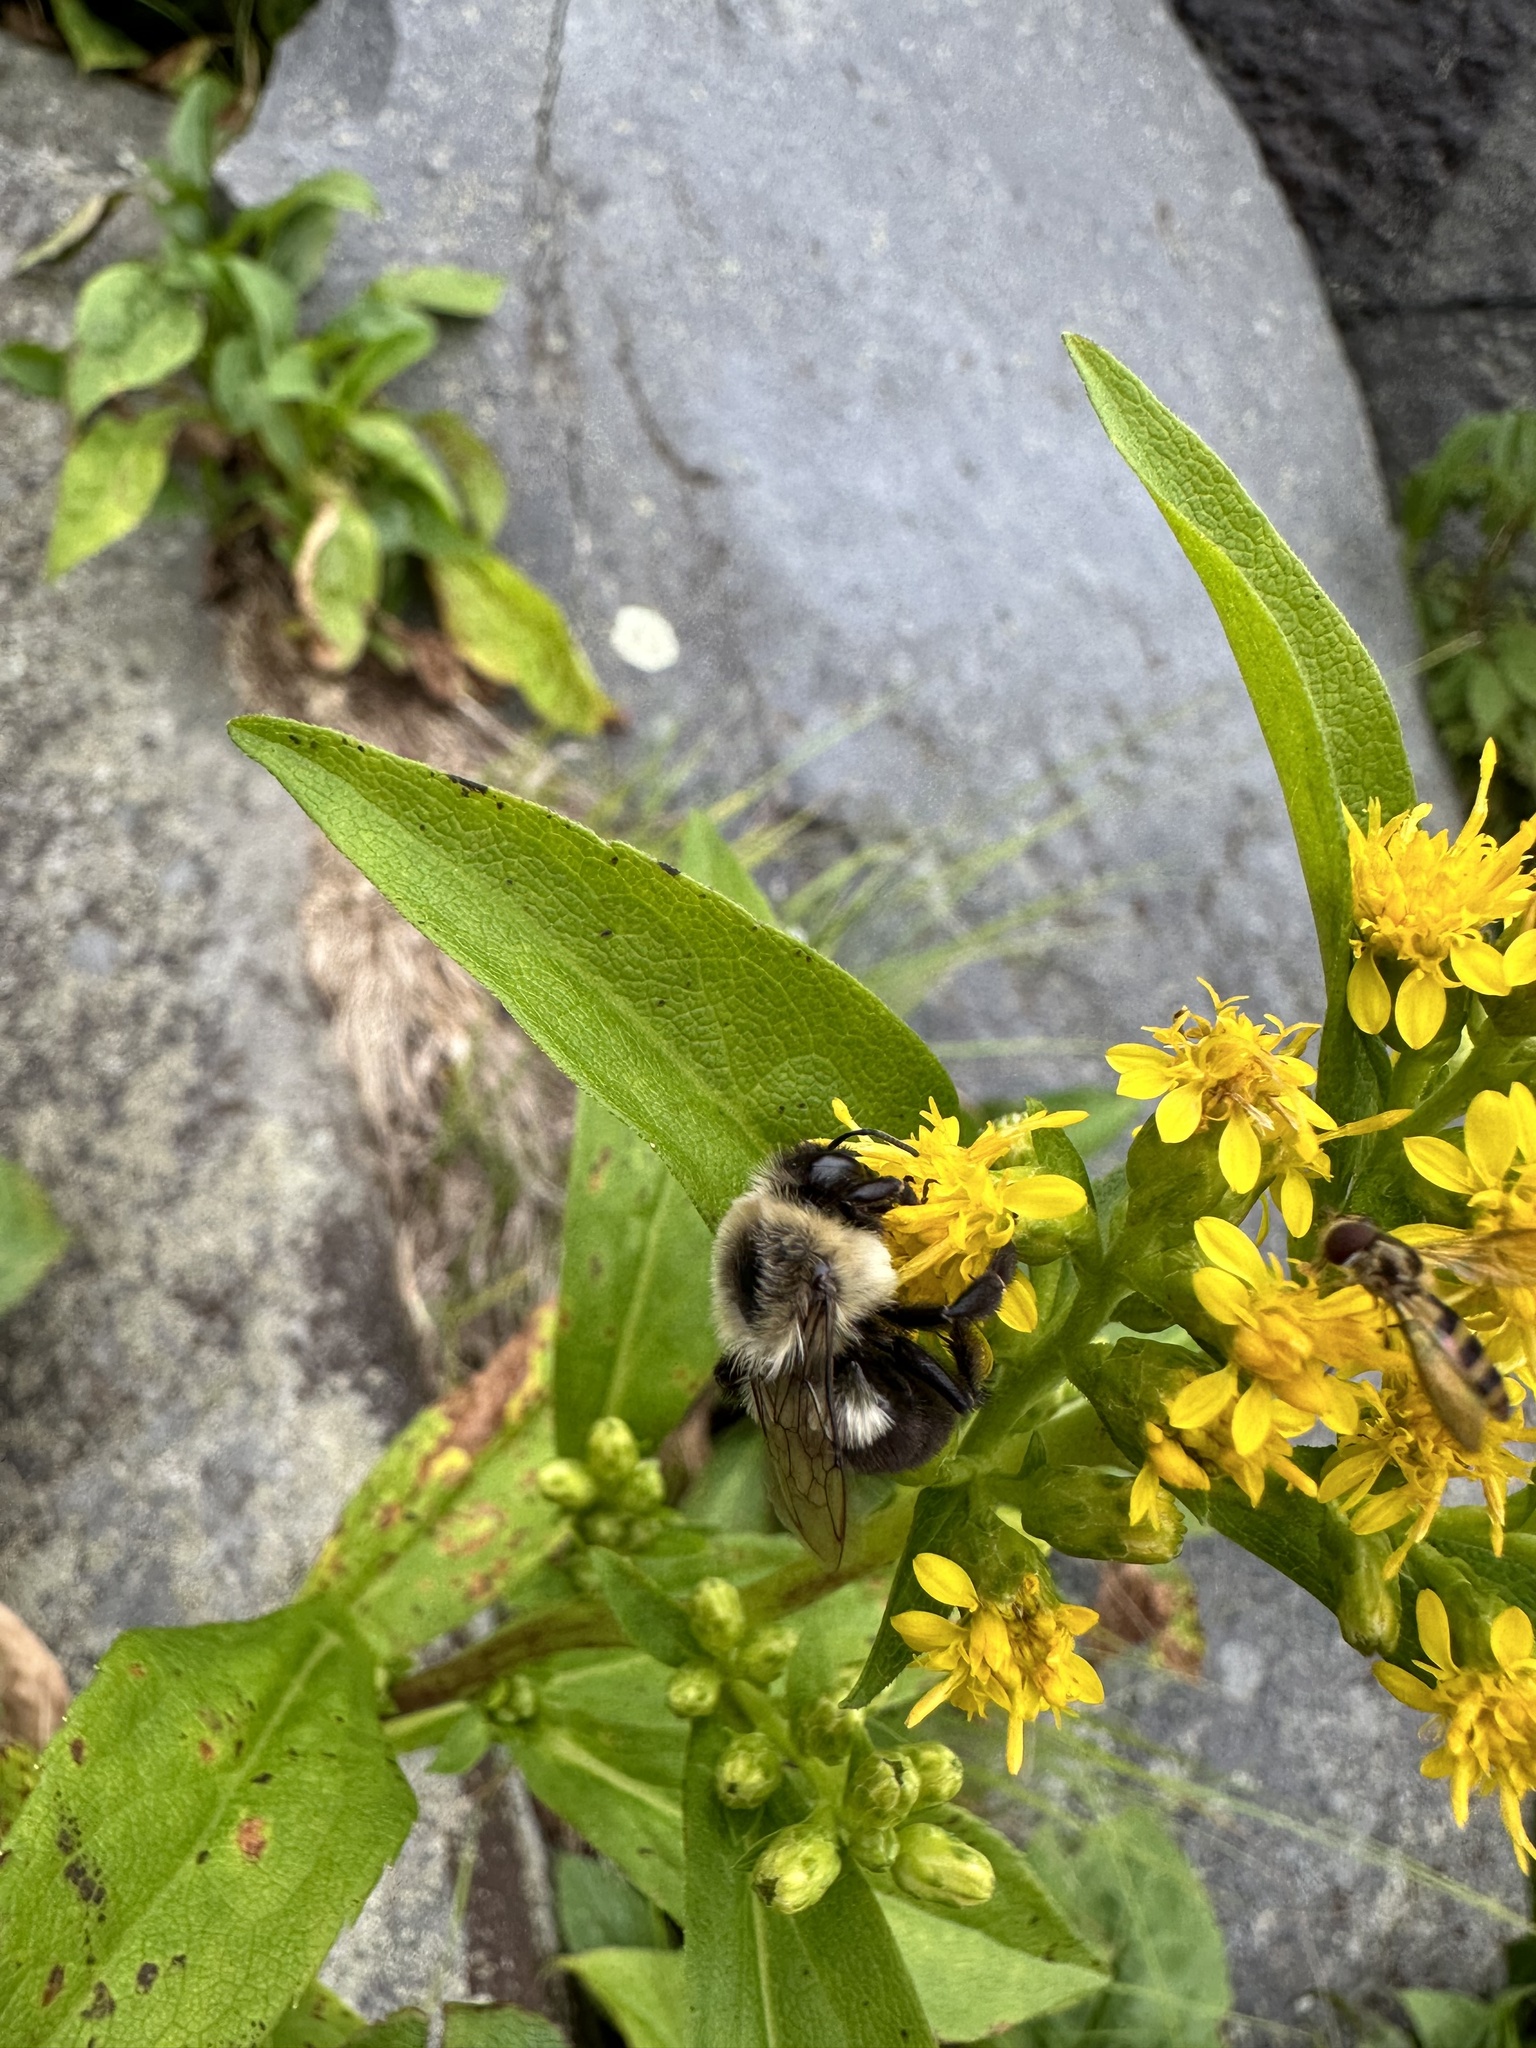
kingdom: Animalia
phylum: Arthropoda
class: Insecta
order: Hymenoptera
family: Apidae
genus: Bombus
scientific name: Bombus impatiens
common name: Common eastern bumble bee
